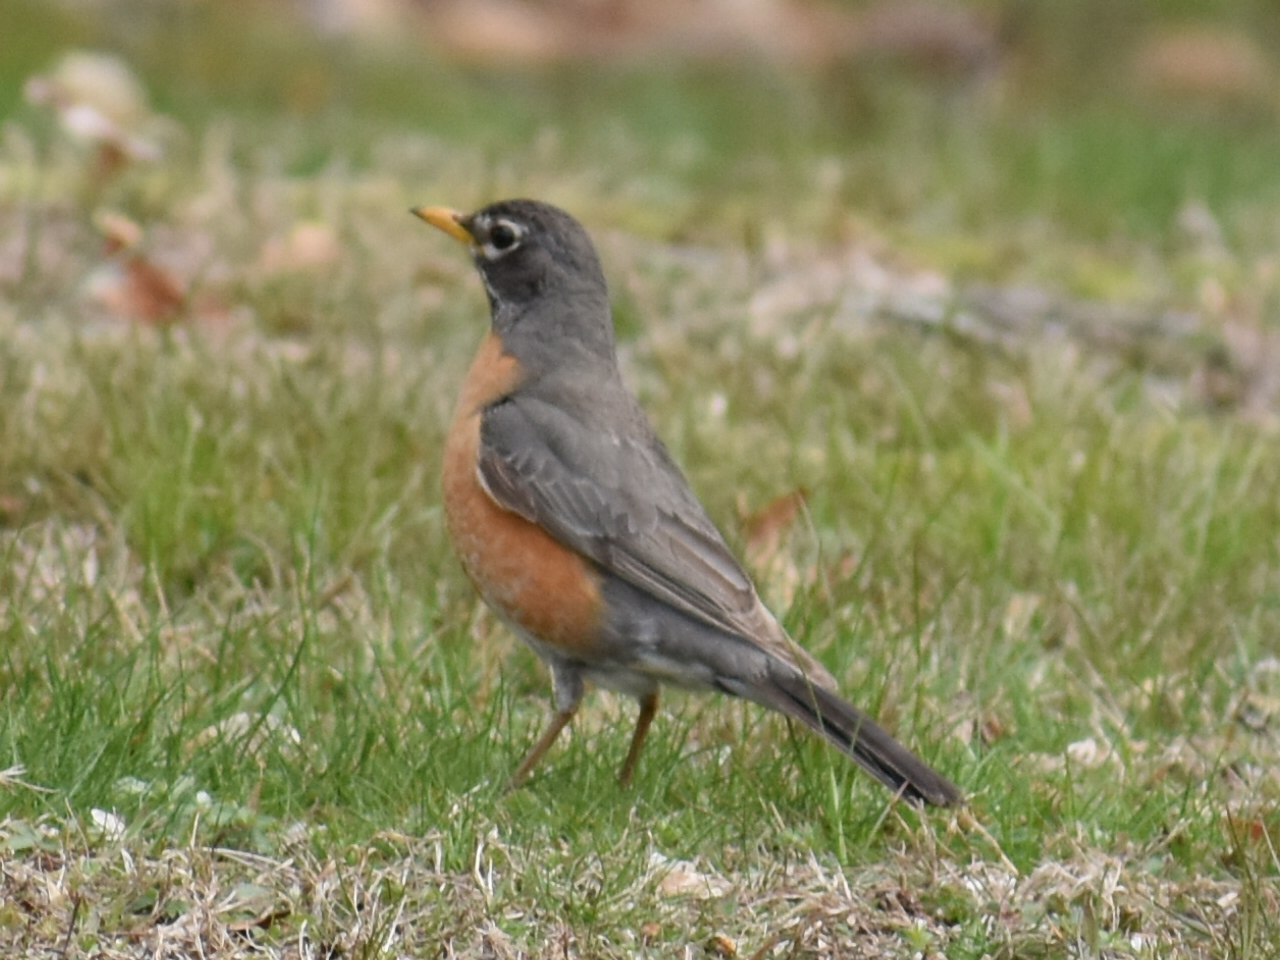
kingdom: Animalia
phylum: Chordata
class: Aves
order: Passeriformes
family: Turdidae
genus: Turdus
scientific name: Turdus migratorius
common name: American robin
